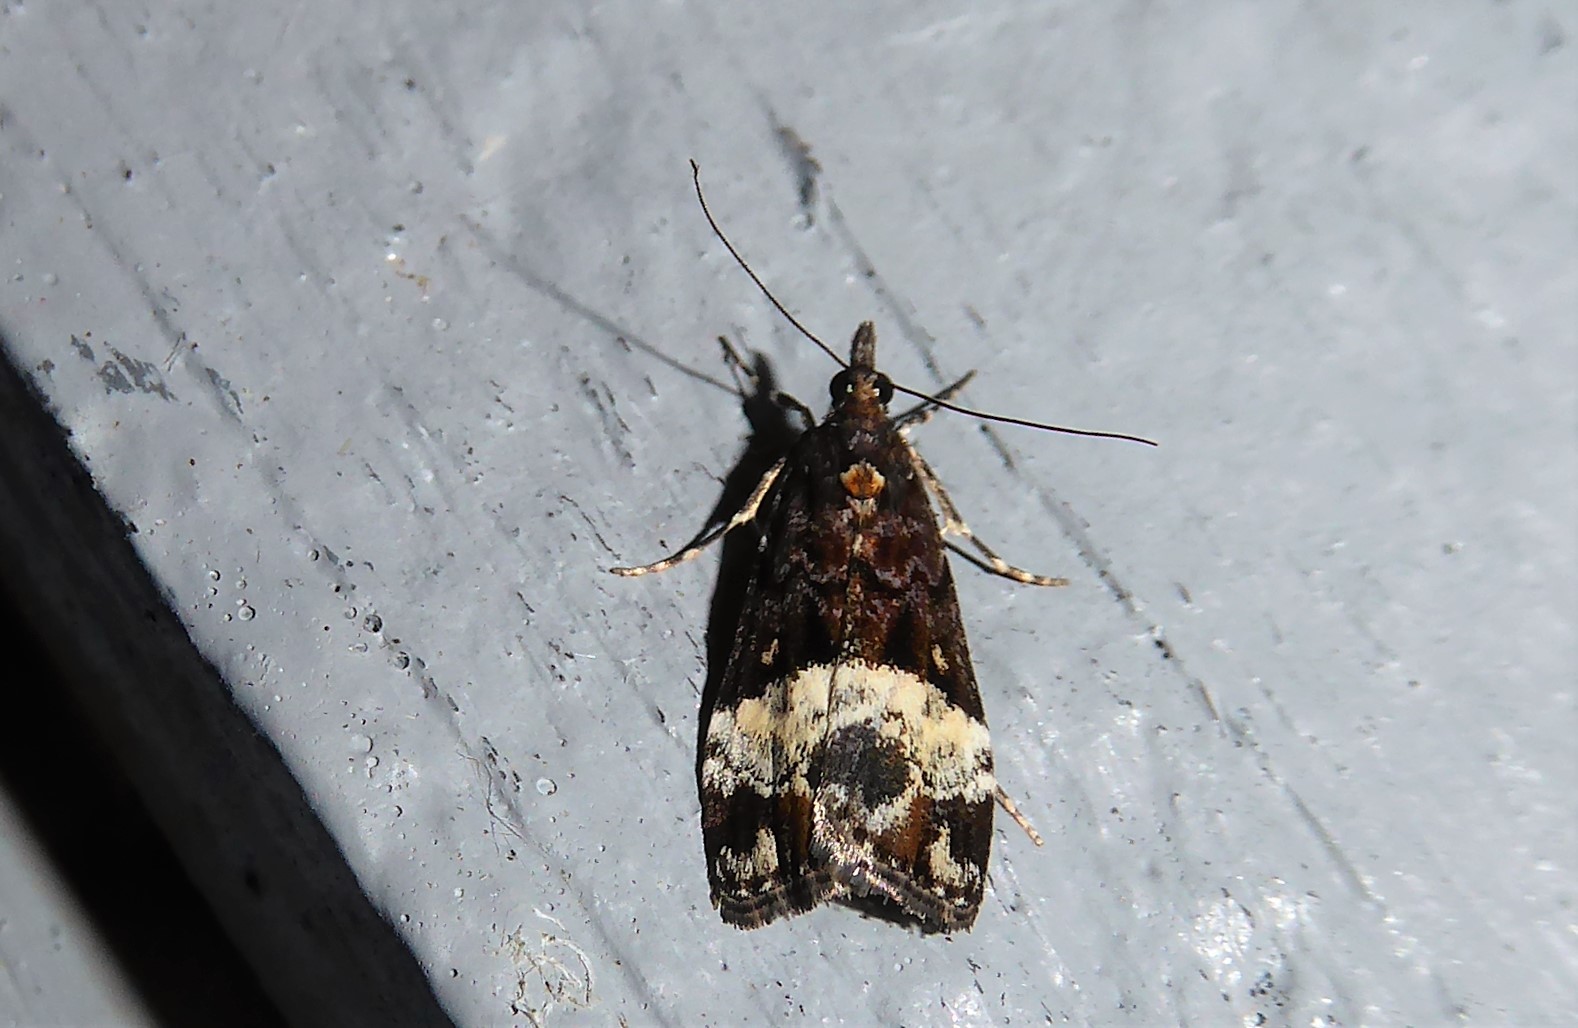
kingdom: Animalia
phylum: Arthropoda
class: Insecta
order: Lepidoptera
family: Crambidae
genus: Scoparia
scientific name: Scoparia minusculalis
